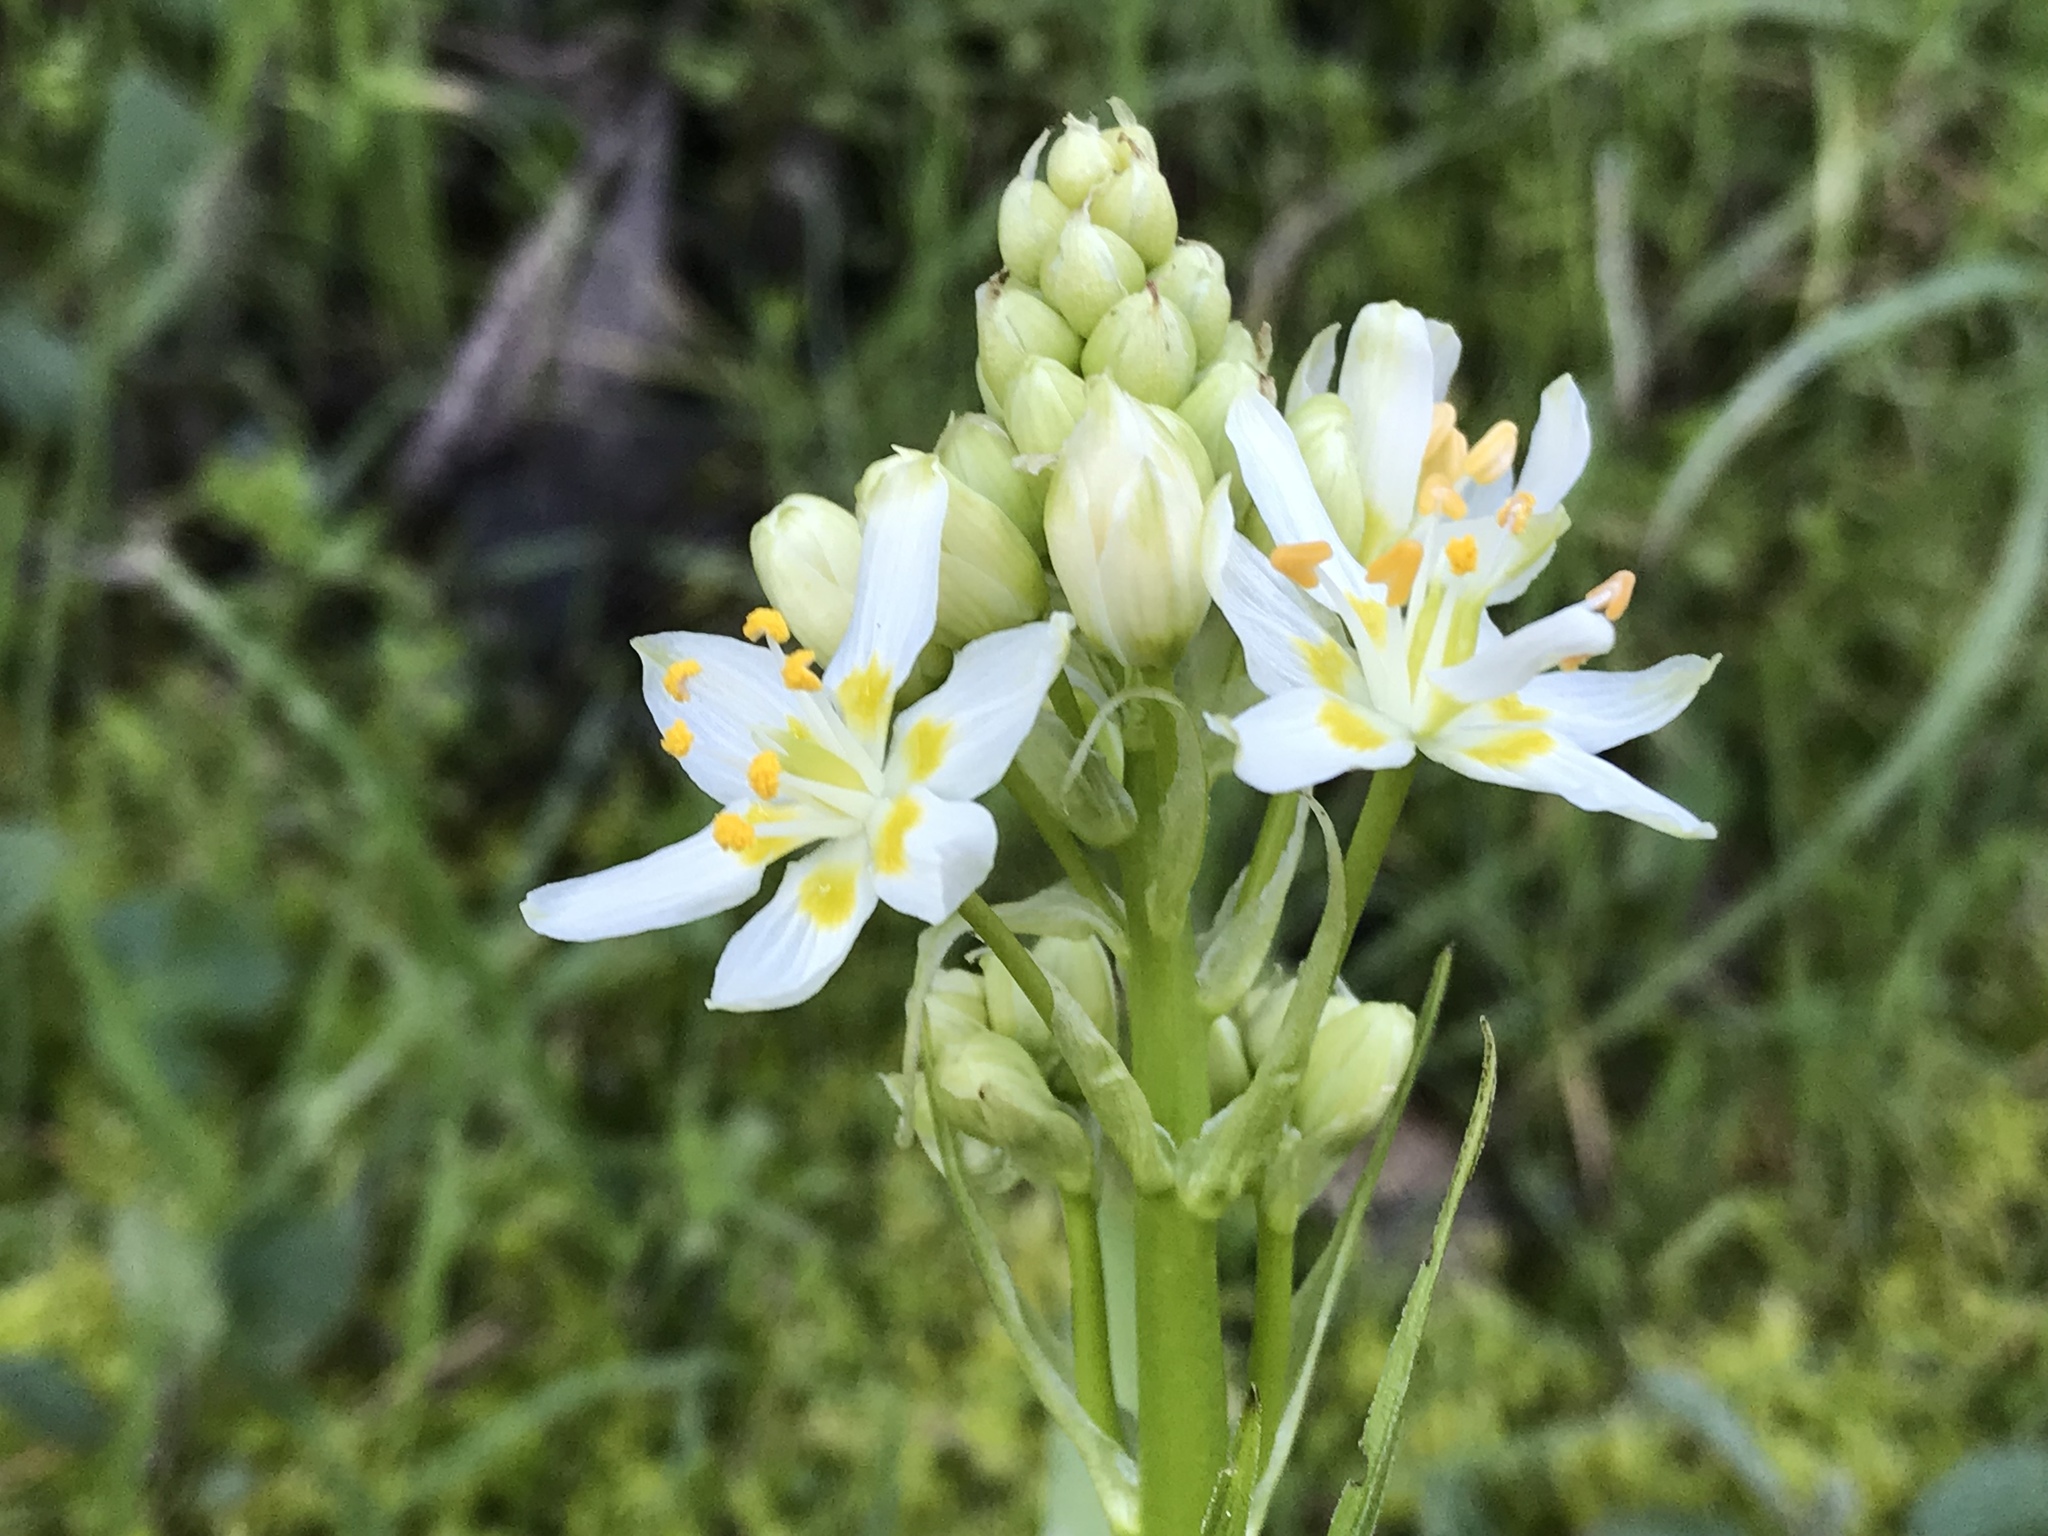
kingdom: Plantae
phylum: Tracheophyta
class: Liliopsida
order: Liliales
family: Melanthiaceae
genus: Toxicoscordion
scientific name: Toxicoscordion fremontii
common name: Fremont's death camas
